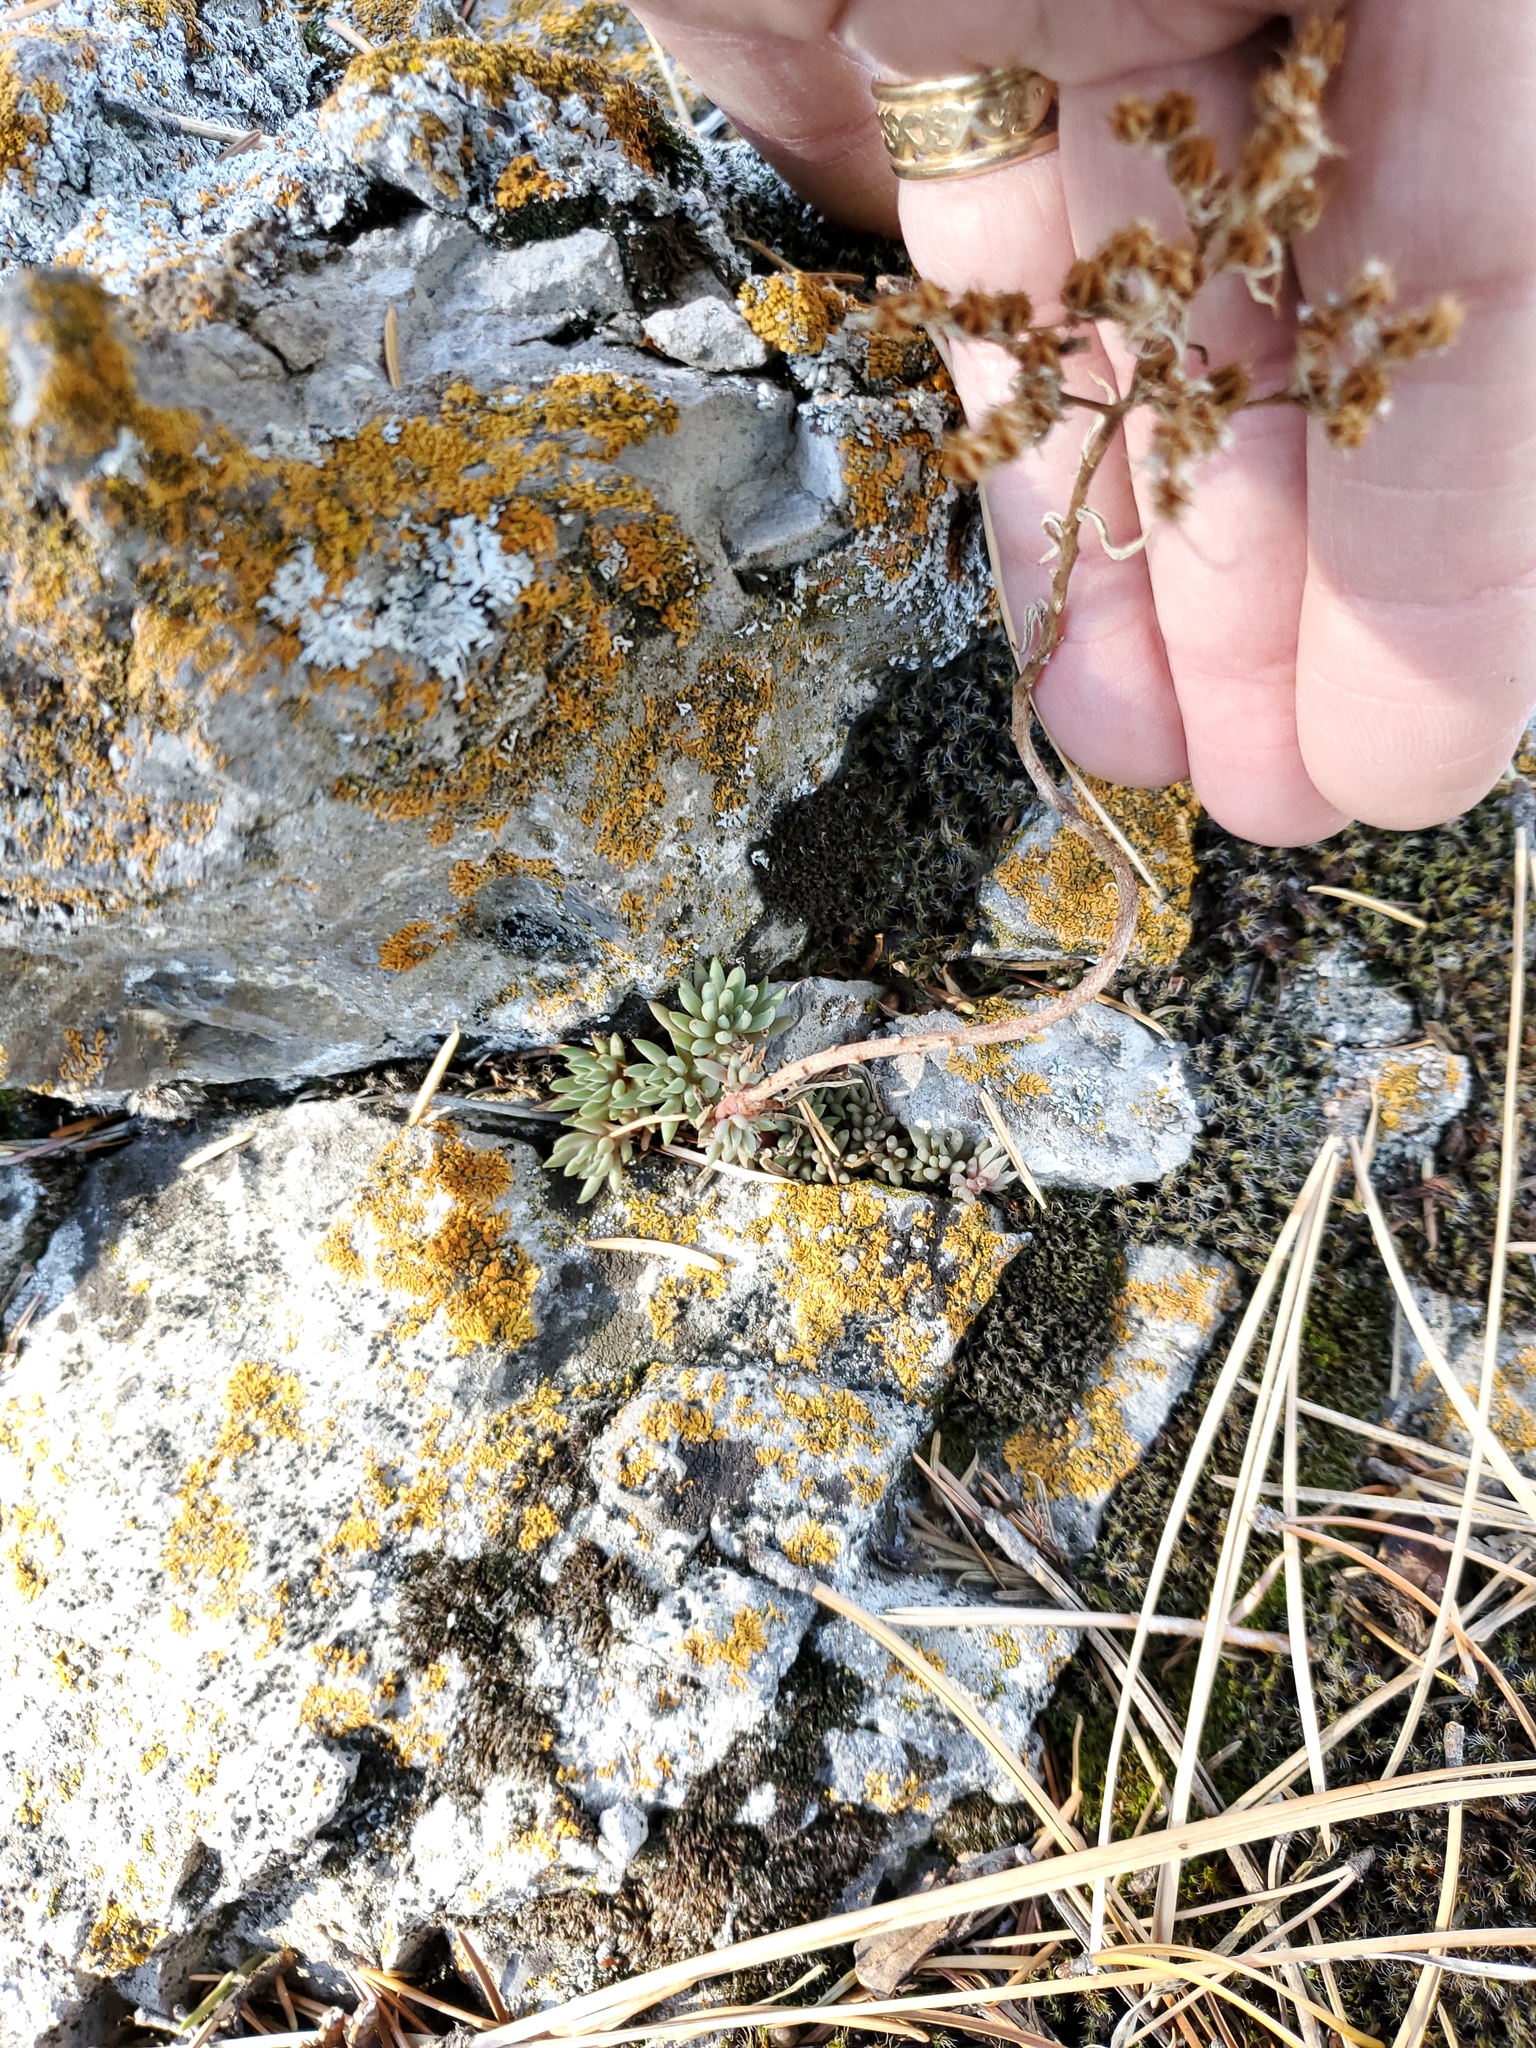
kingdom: Plantae
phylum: Tracheophyta
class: Magnoliopsida
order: Saxifragales
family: Crassulaceae
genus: Sedum
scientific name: Sedum lanceolatum
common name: Common stonecrop
